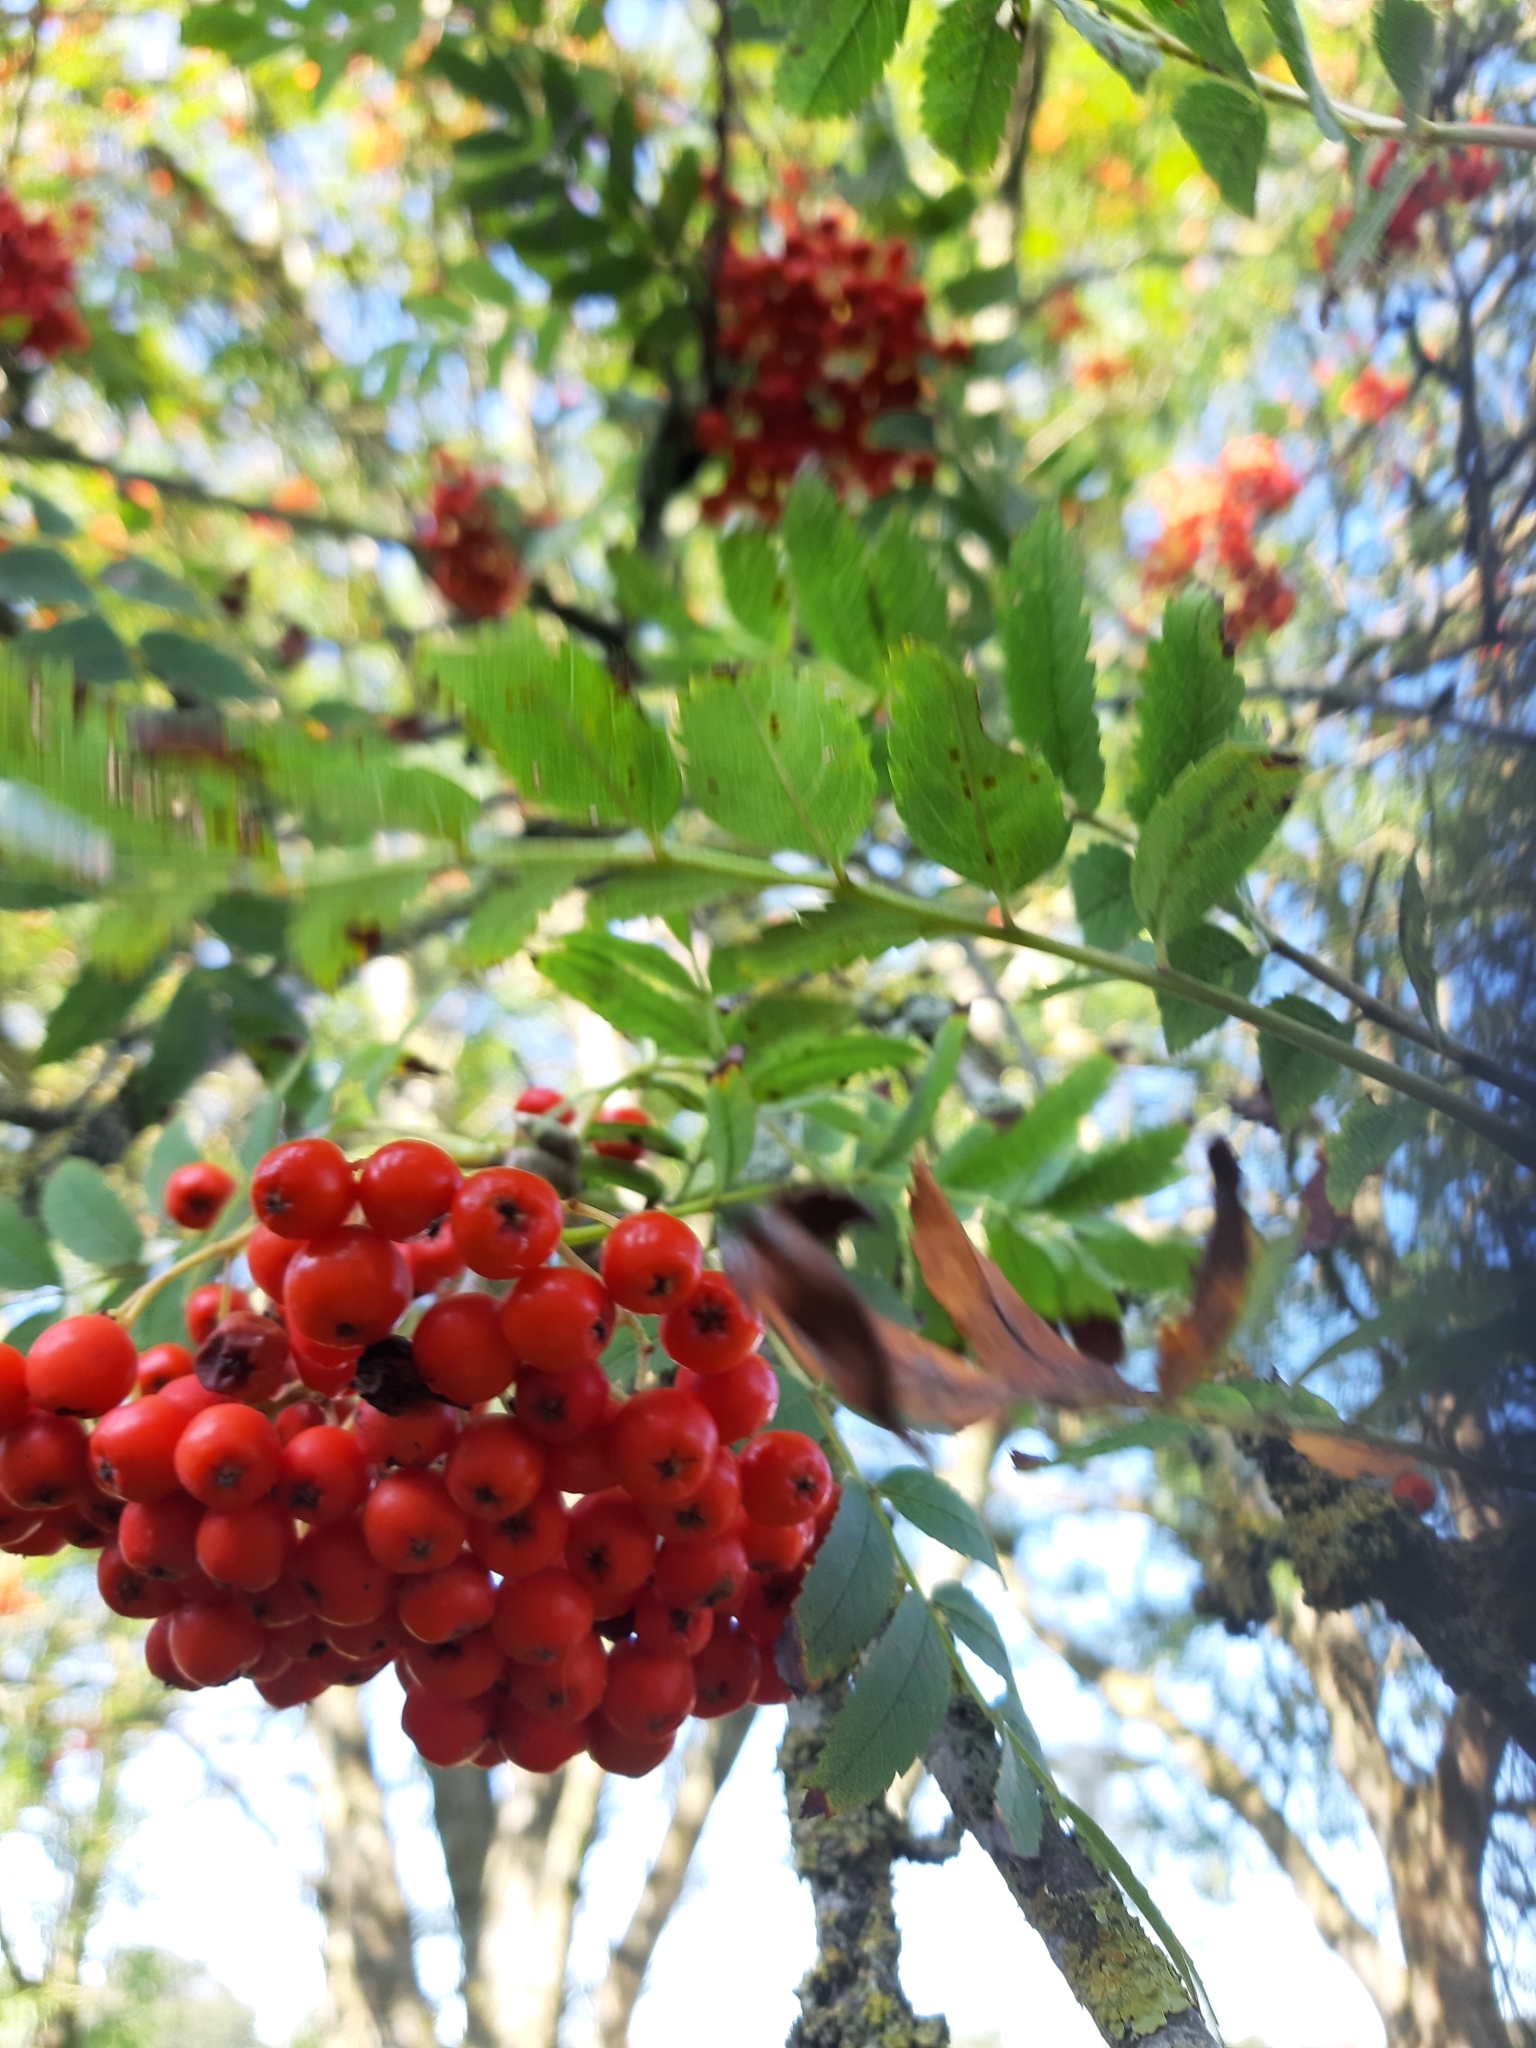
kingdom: Plantae
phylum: Tracheophyta
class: Magnoliopsida
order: Rosales
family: Rosaceae
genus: Sorbus
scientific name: Sorbus aucuparia
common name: Rowan
